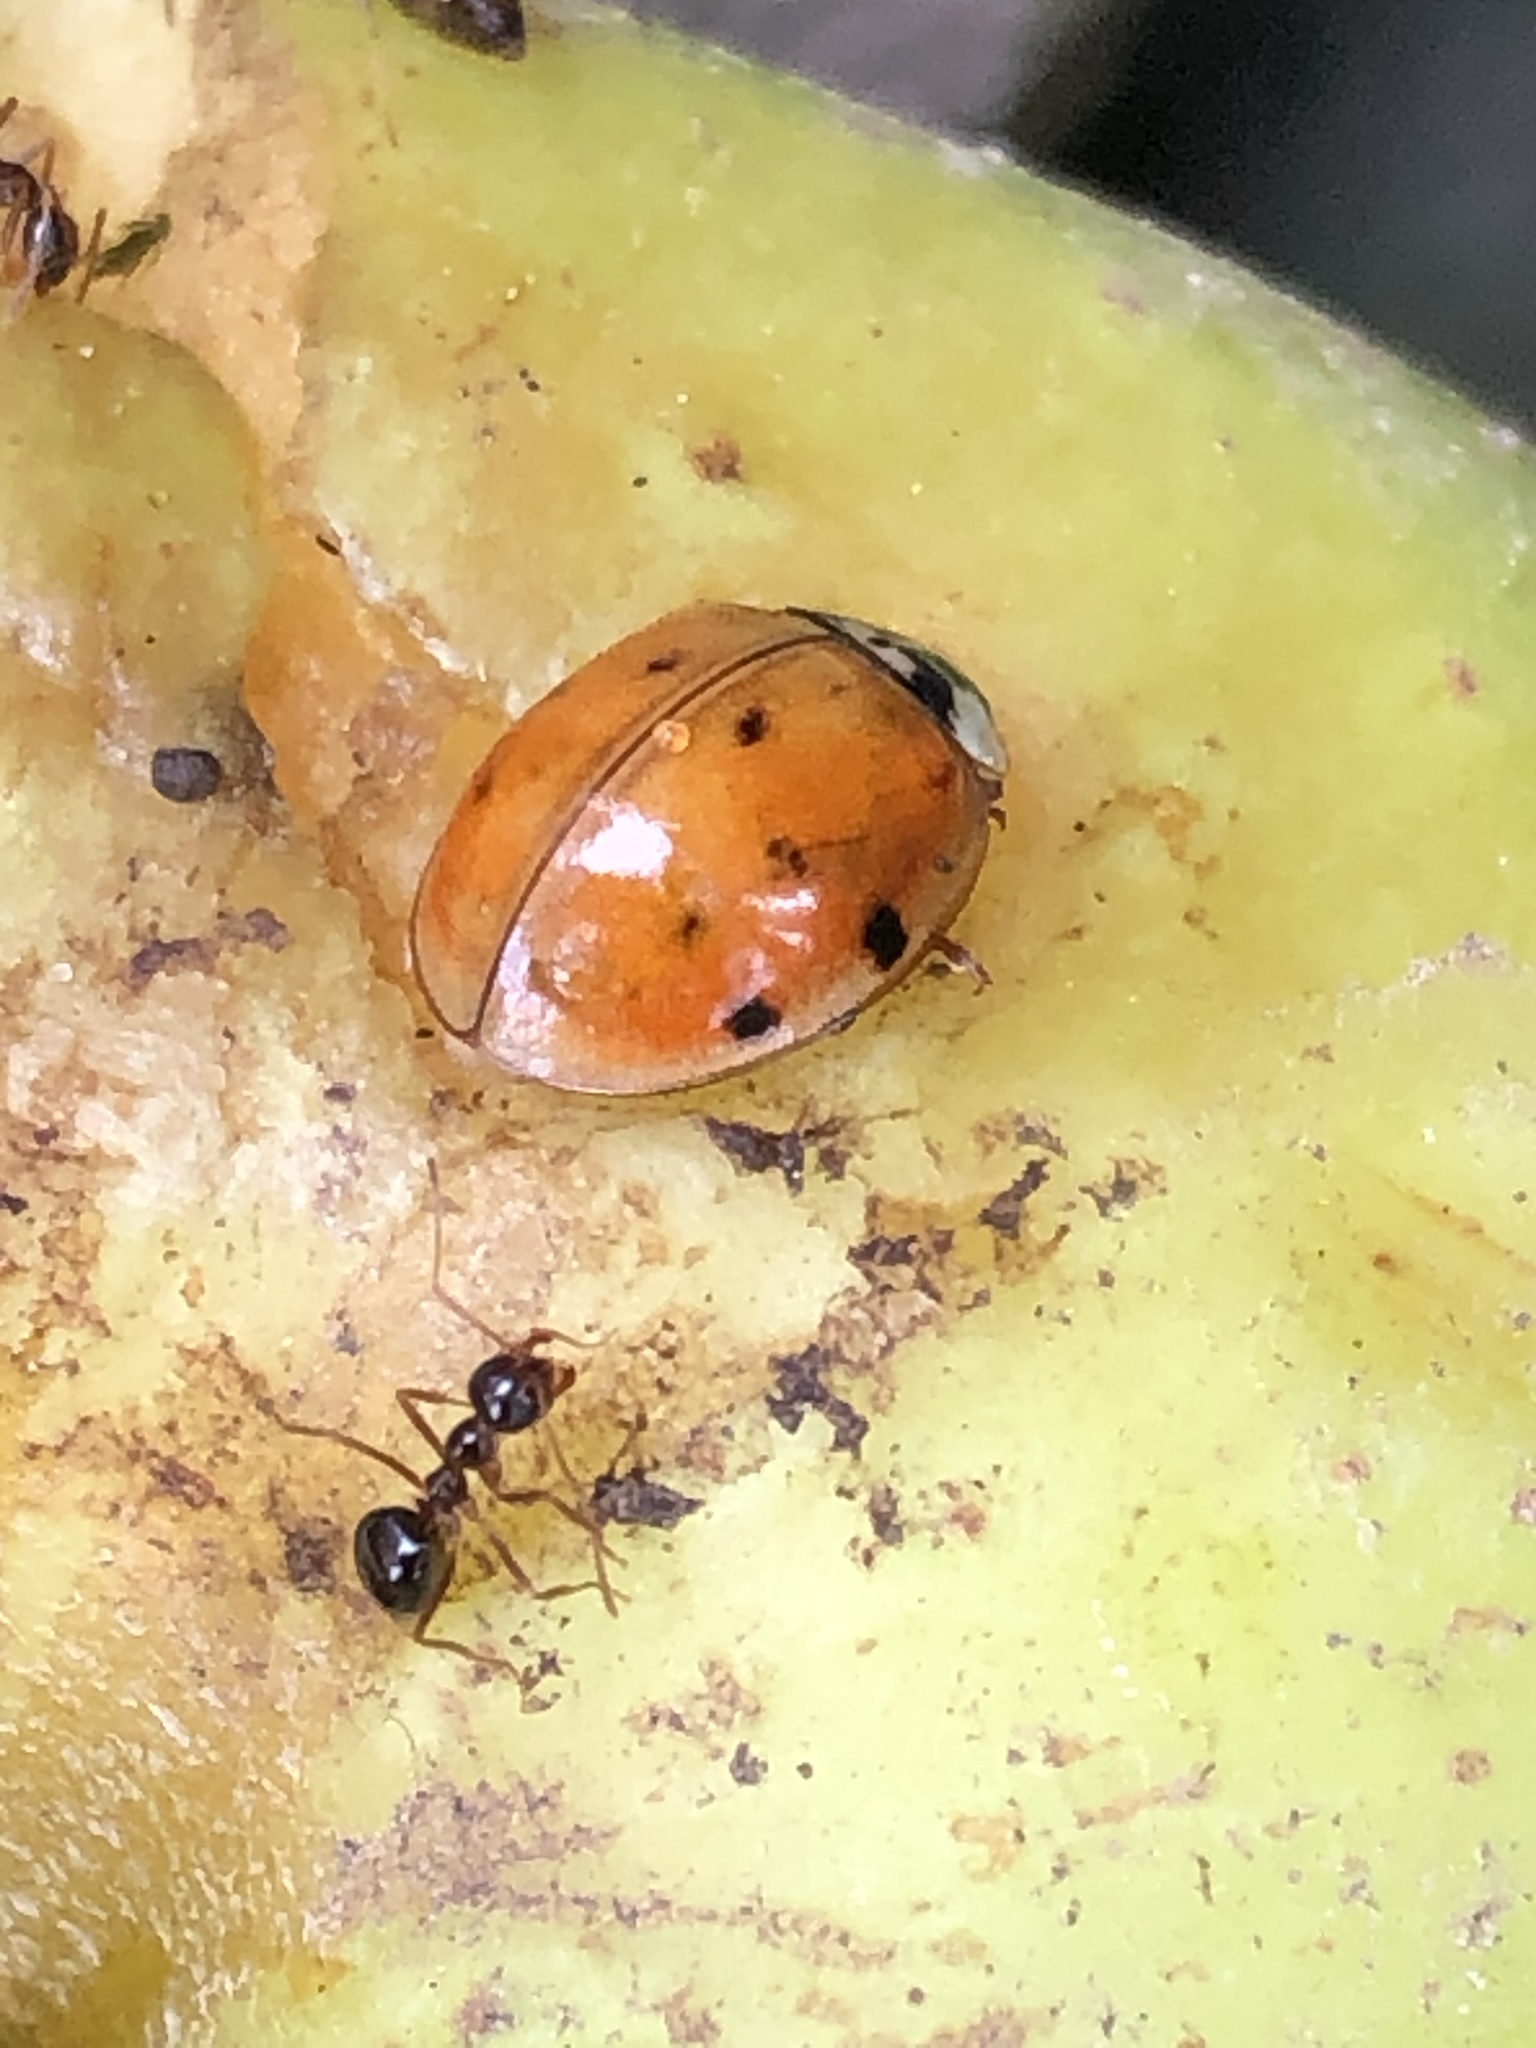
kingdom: Animalia
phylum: Arthropoda
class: Insecta
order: Coleoptera
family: Coccinellidae
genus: Harmonia
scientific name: Harmonia axyridis
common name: Harlequin ladybird
